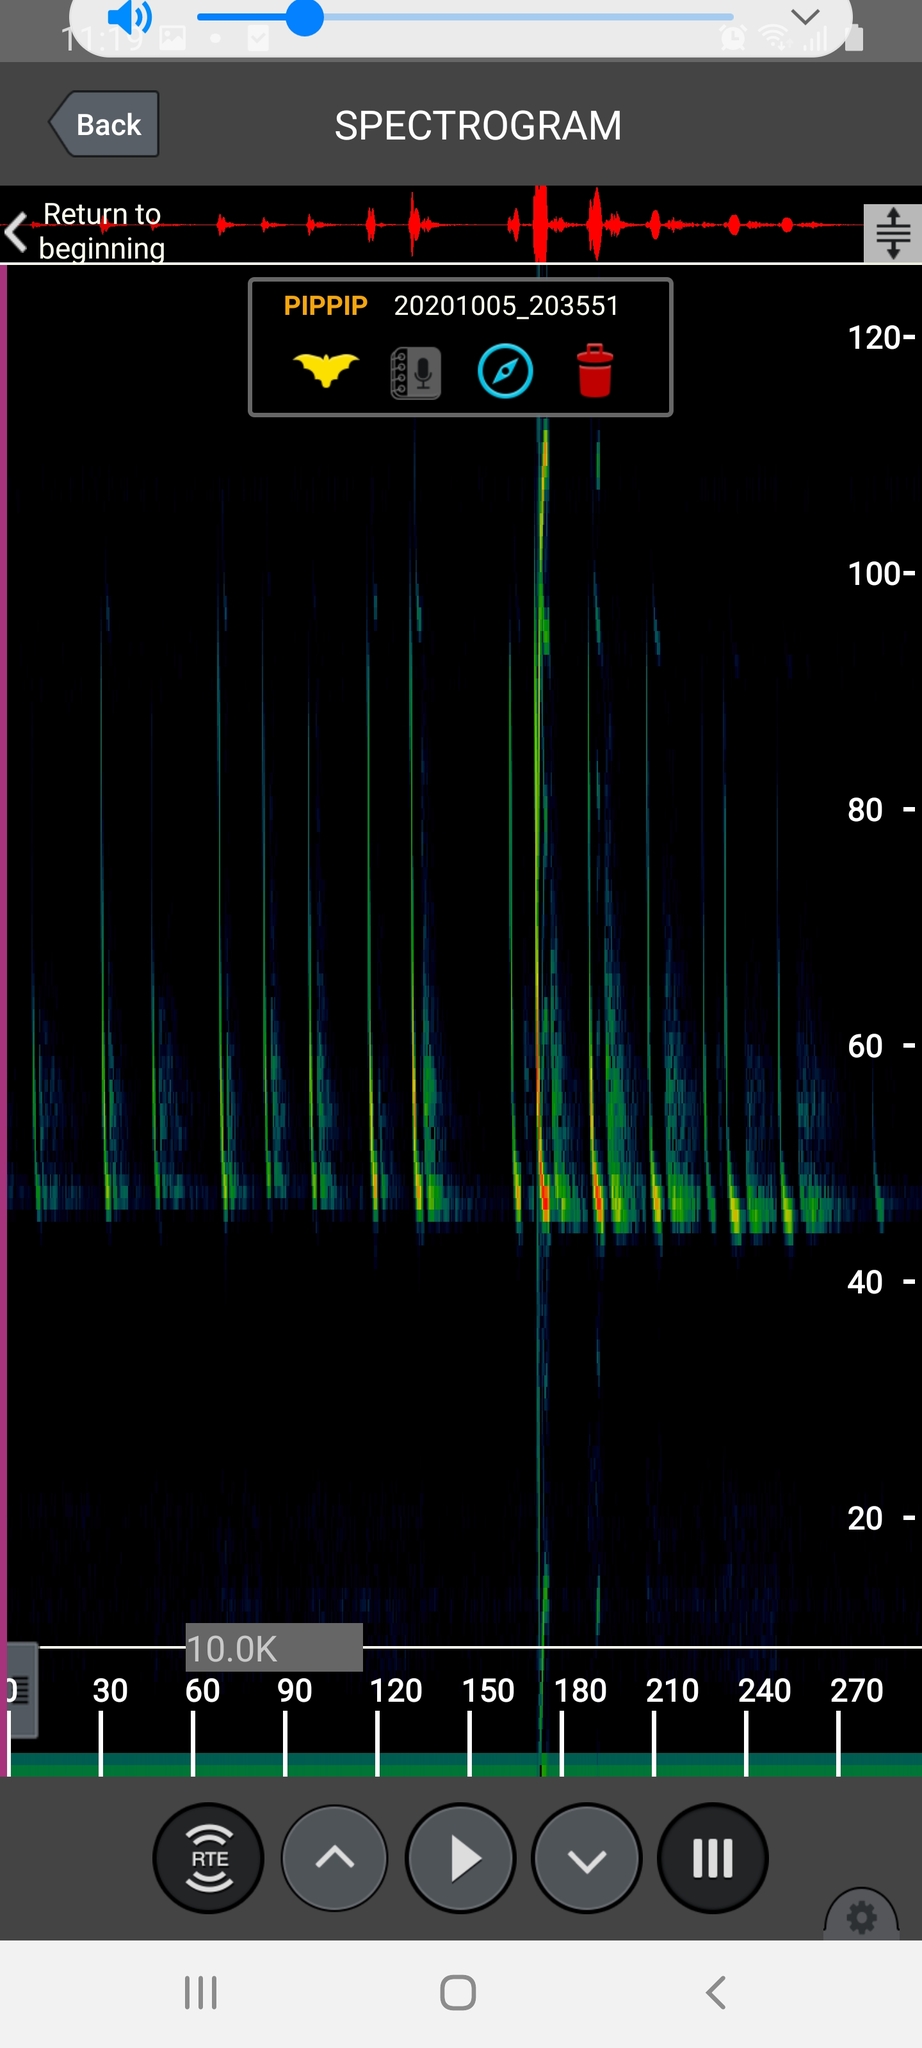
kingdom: Animalia
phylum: Chordata
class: Mammalia
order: Chiroptera
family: Vespertilionidae
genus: Pipistrellus
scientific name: Pipistrellus pipistrellus
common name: Common pipistrelle
